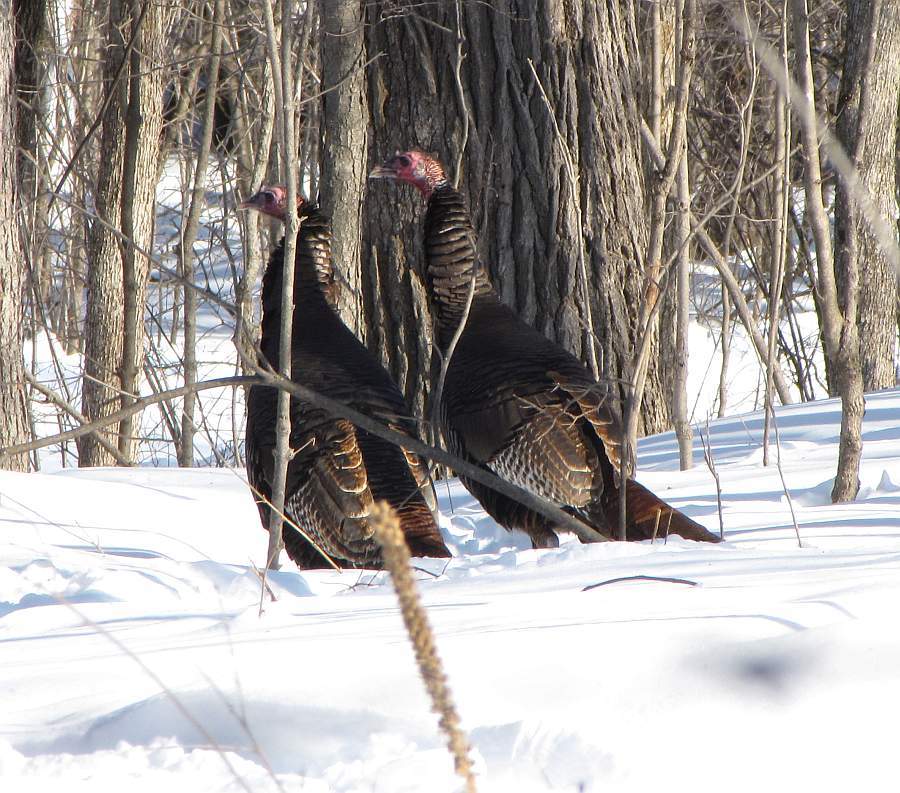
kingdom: Animalia
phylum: Chordata
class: Aves
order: Galliformes
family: Phasianidae
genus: Meleagris
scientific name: Meleagris gallopavo
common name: Wild turkey
